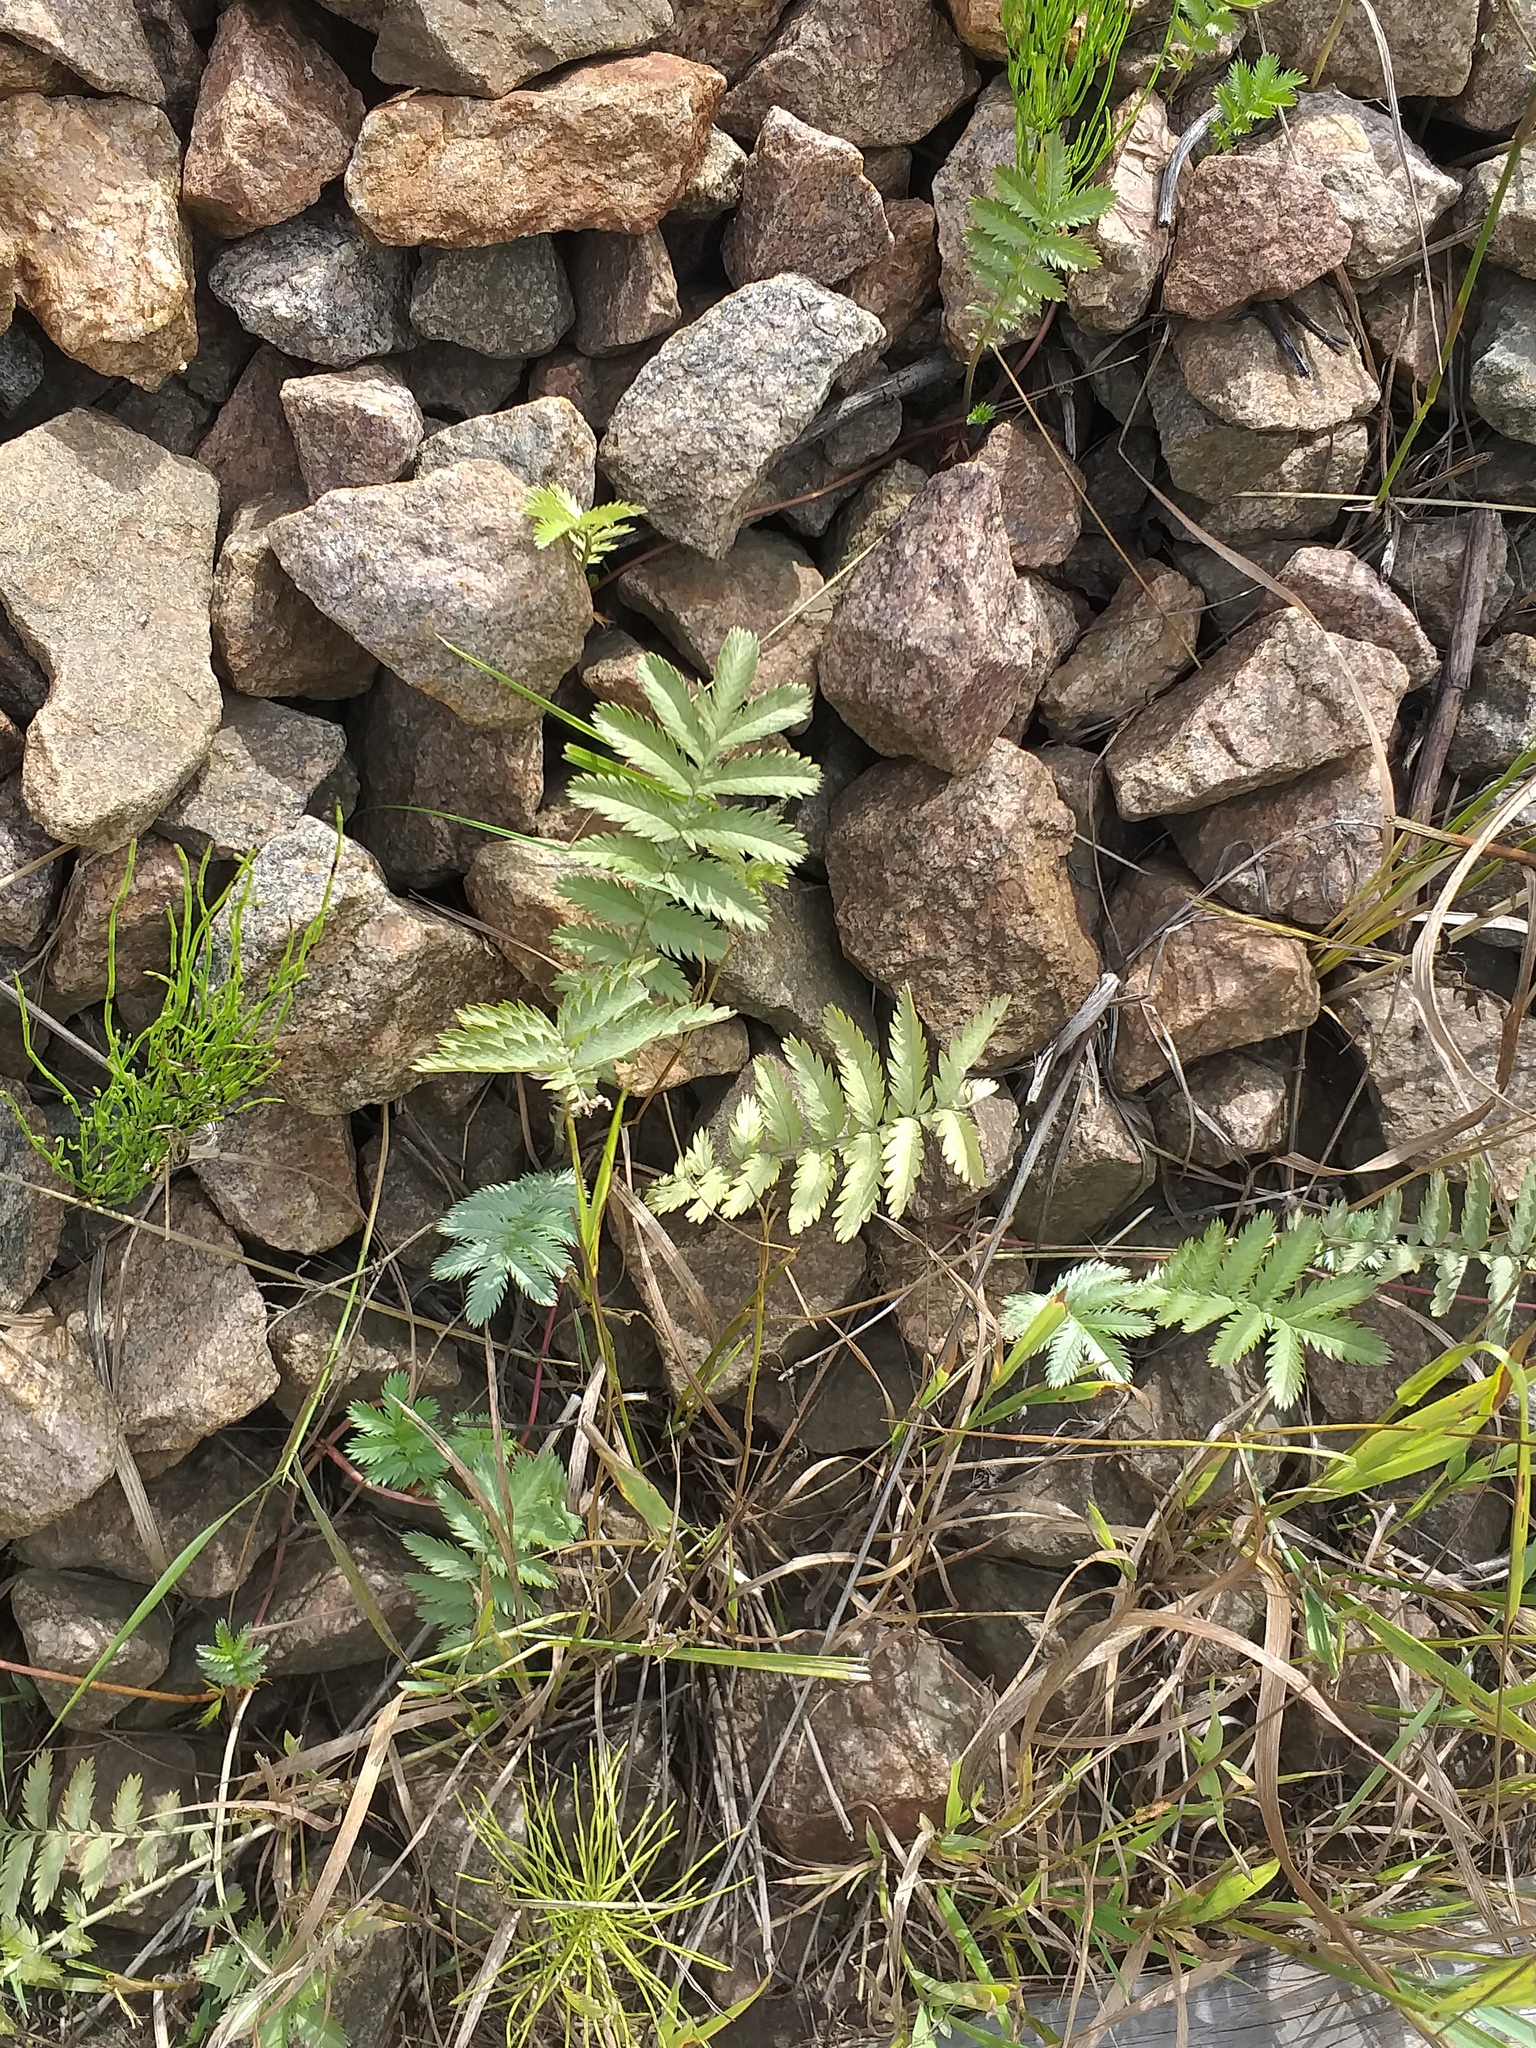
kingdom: Plantae
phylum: Tracheophyta
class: Magnoliopsida
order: Rosales
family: Rosaceae
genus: Argentina
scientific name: Argentina anserina
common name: Common silverweed
